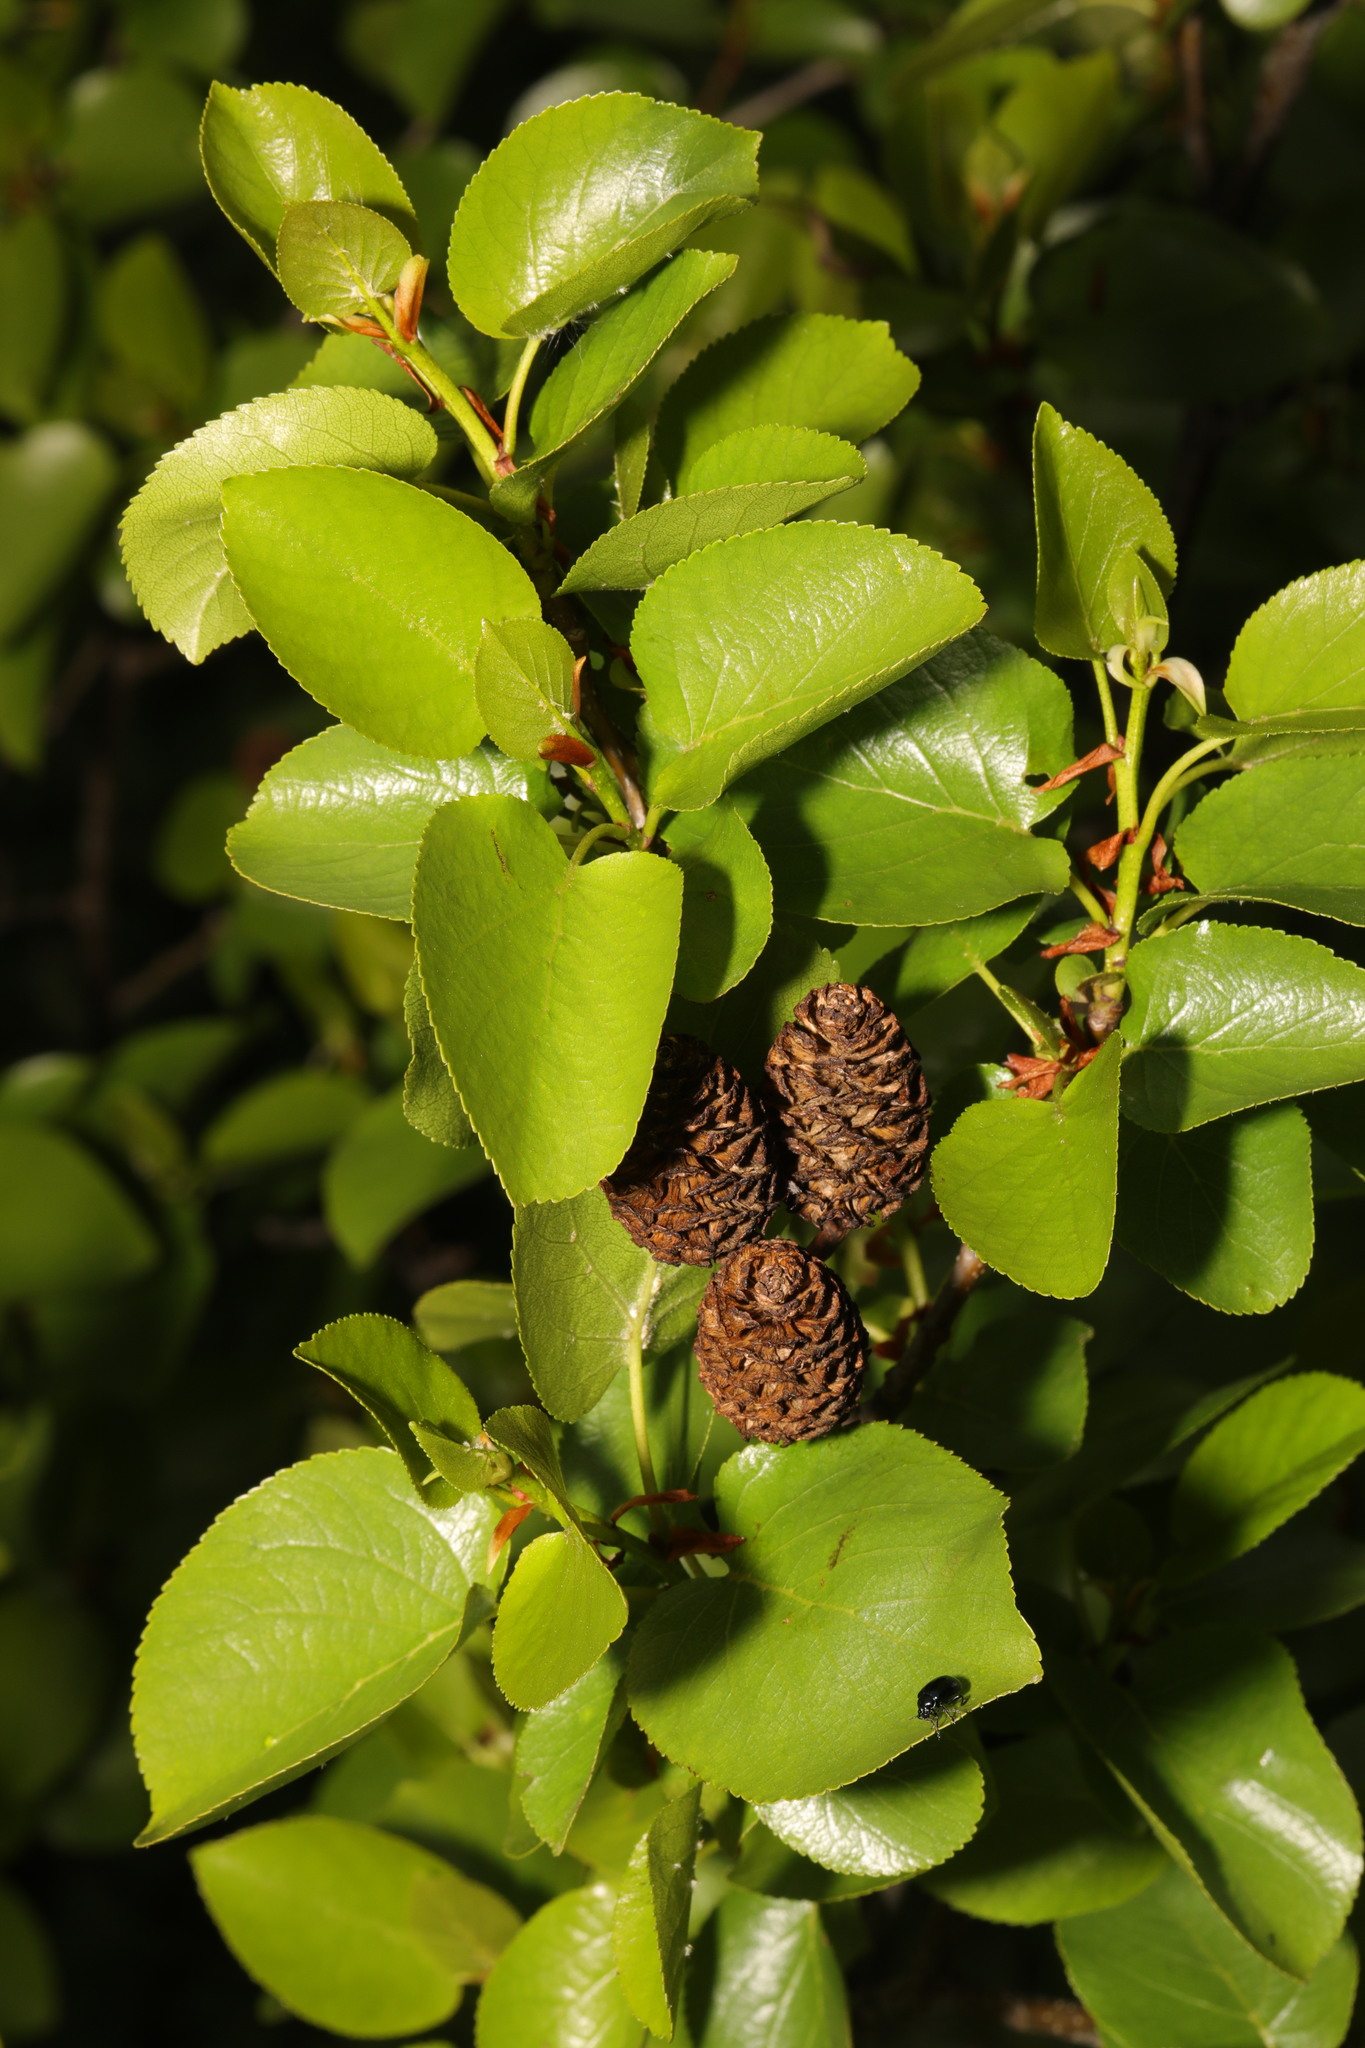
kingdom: Plantae
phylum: Tracheophyta
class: Magnoliopsida
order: Fagales
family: Betulaceae
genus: Alnus
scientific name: Alnus cordata
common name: Italian alder
